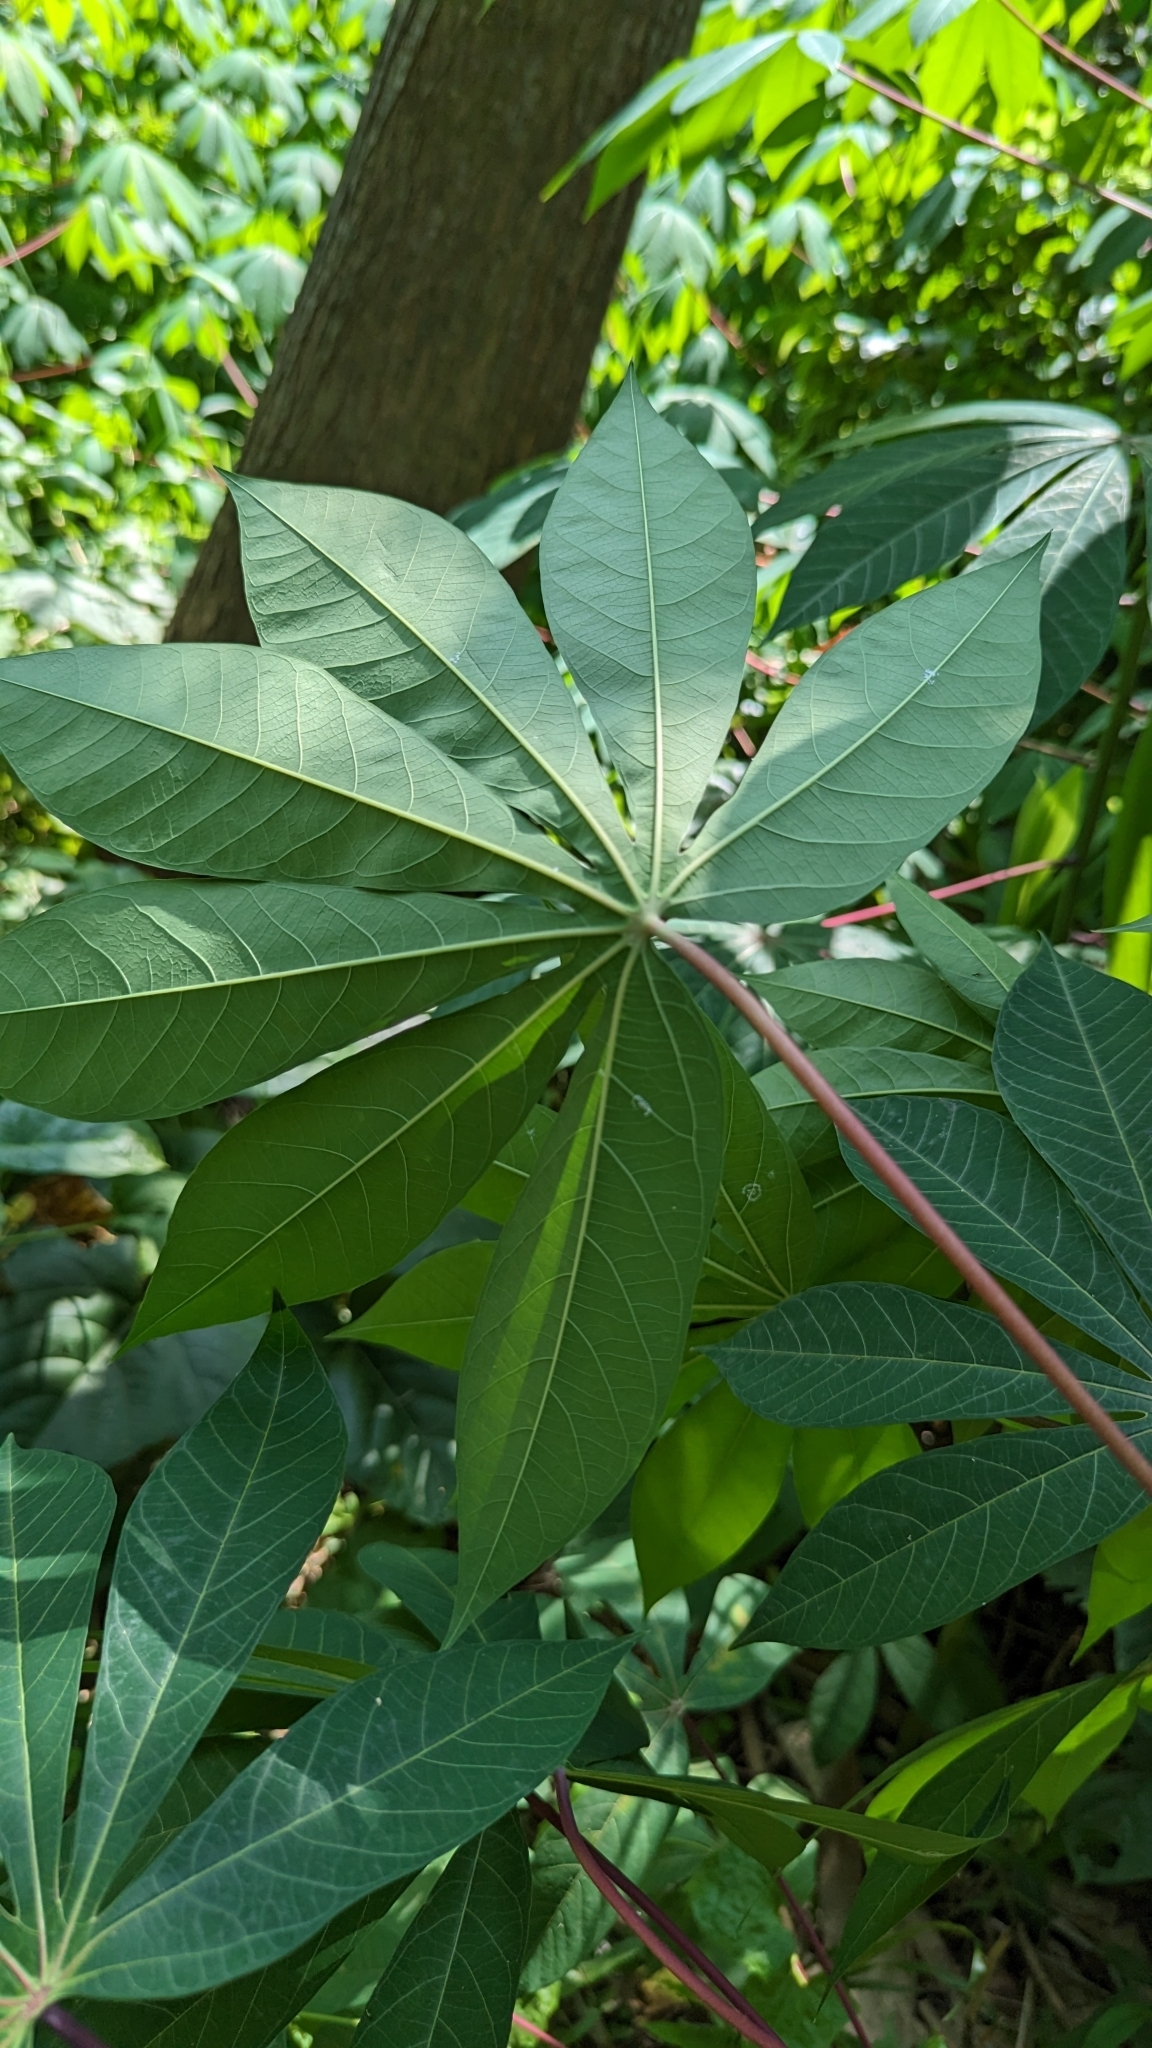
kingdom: Plantae
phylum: Tracheophyta
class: Magnoliopsida
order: Malpighiales
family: Euphorbiaceae
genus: Manihot
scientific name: Manihot esculenta
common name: Cassava
